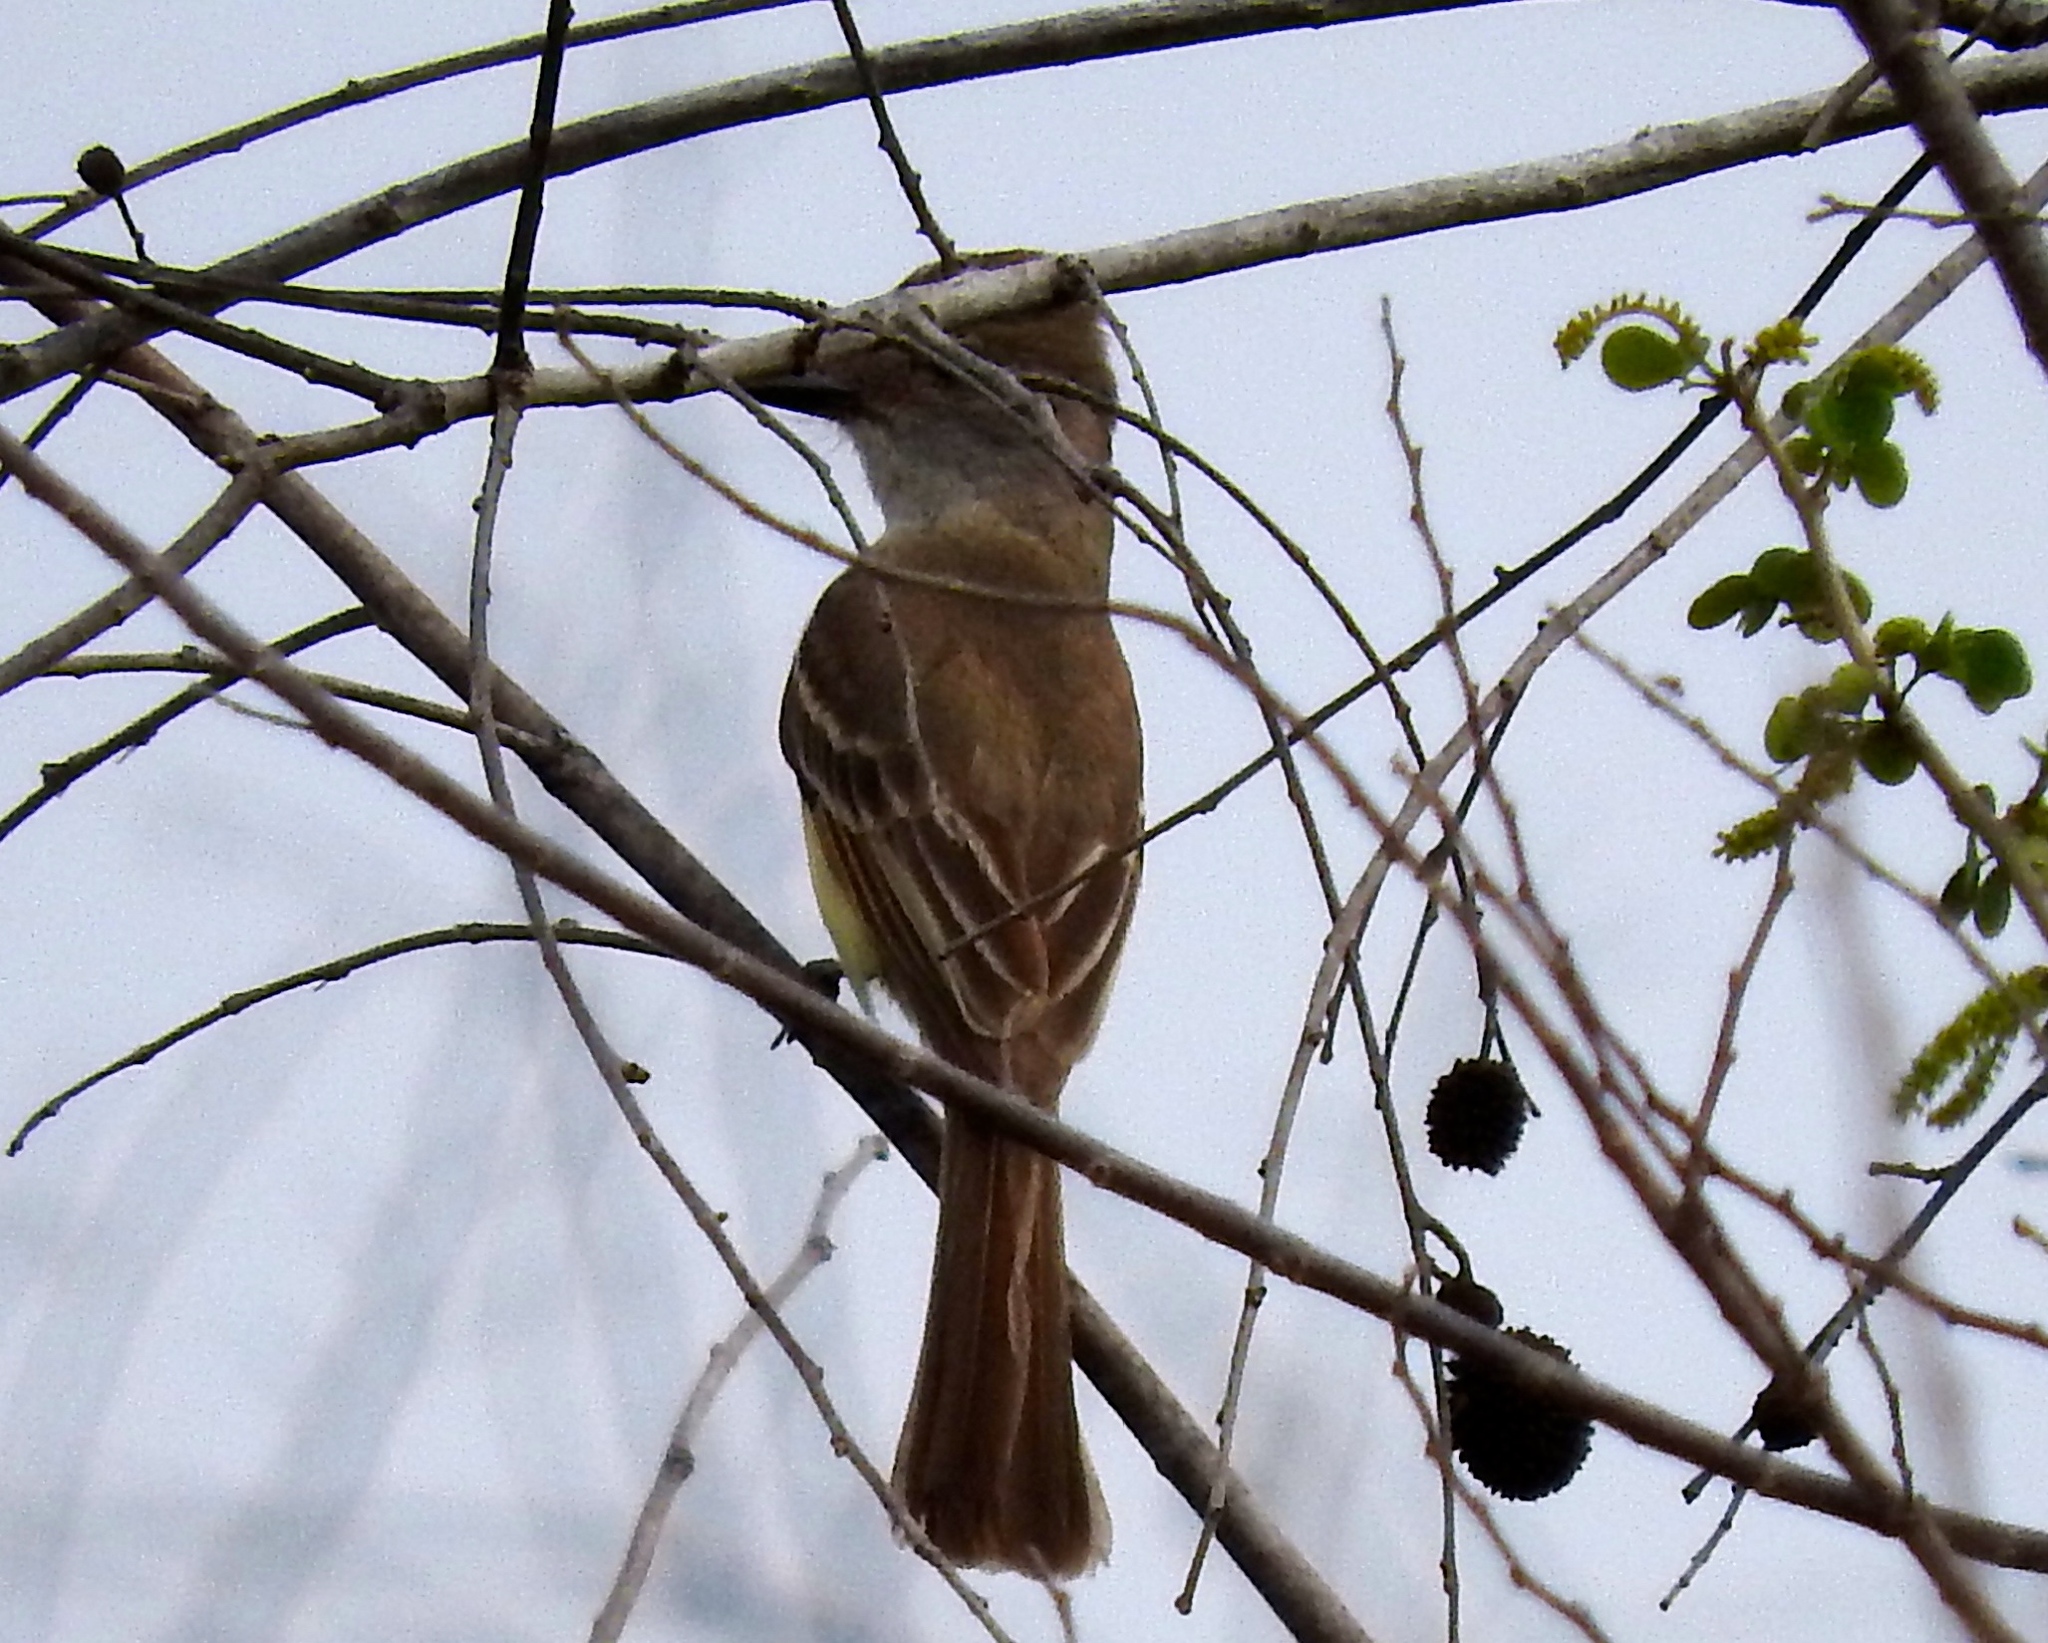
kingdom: Animalia
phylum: Chordata
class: Aves
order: Passeriformes
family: Tyrannidae
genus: Myiarchus
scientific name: Myiarchus
